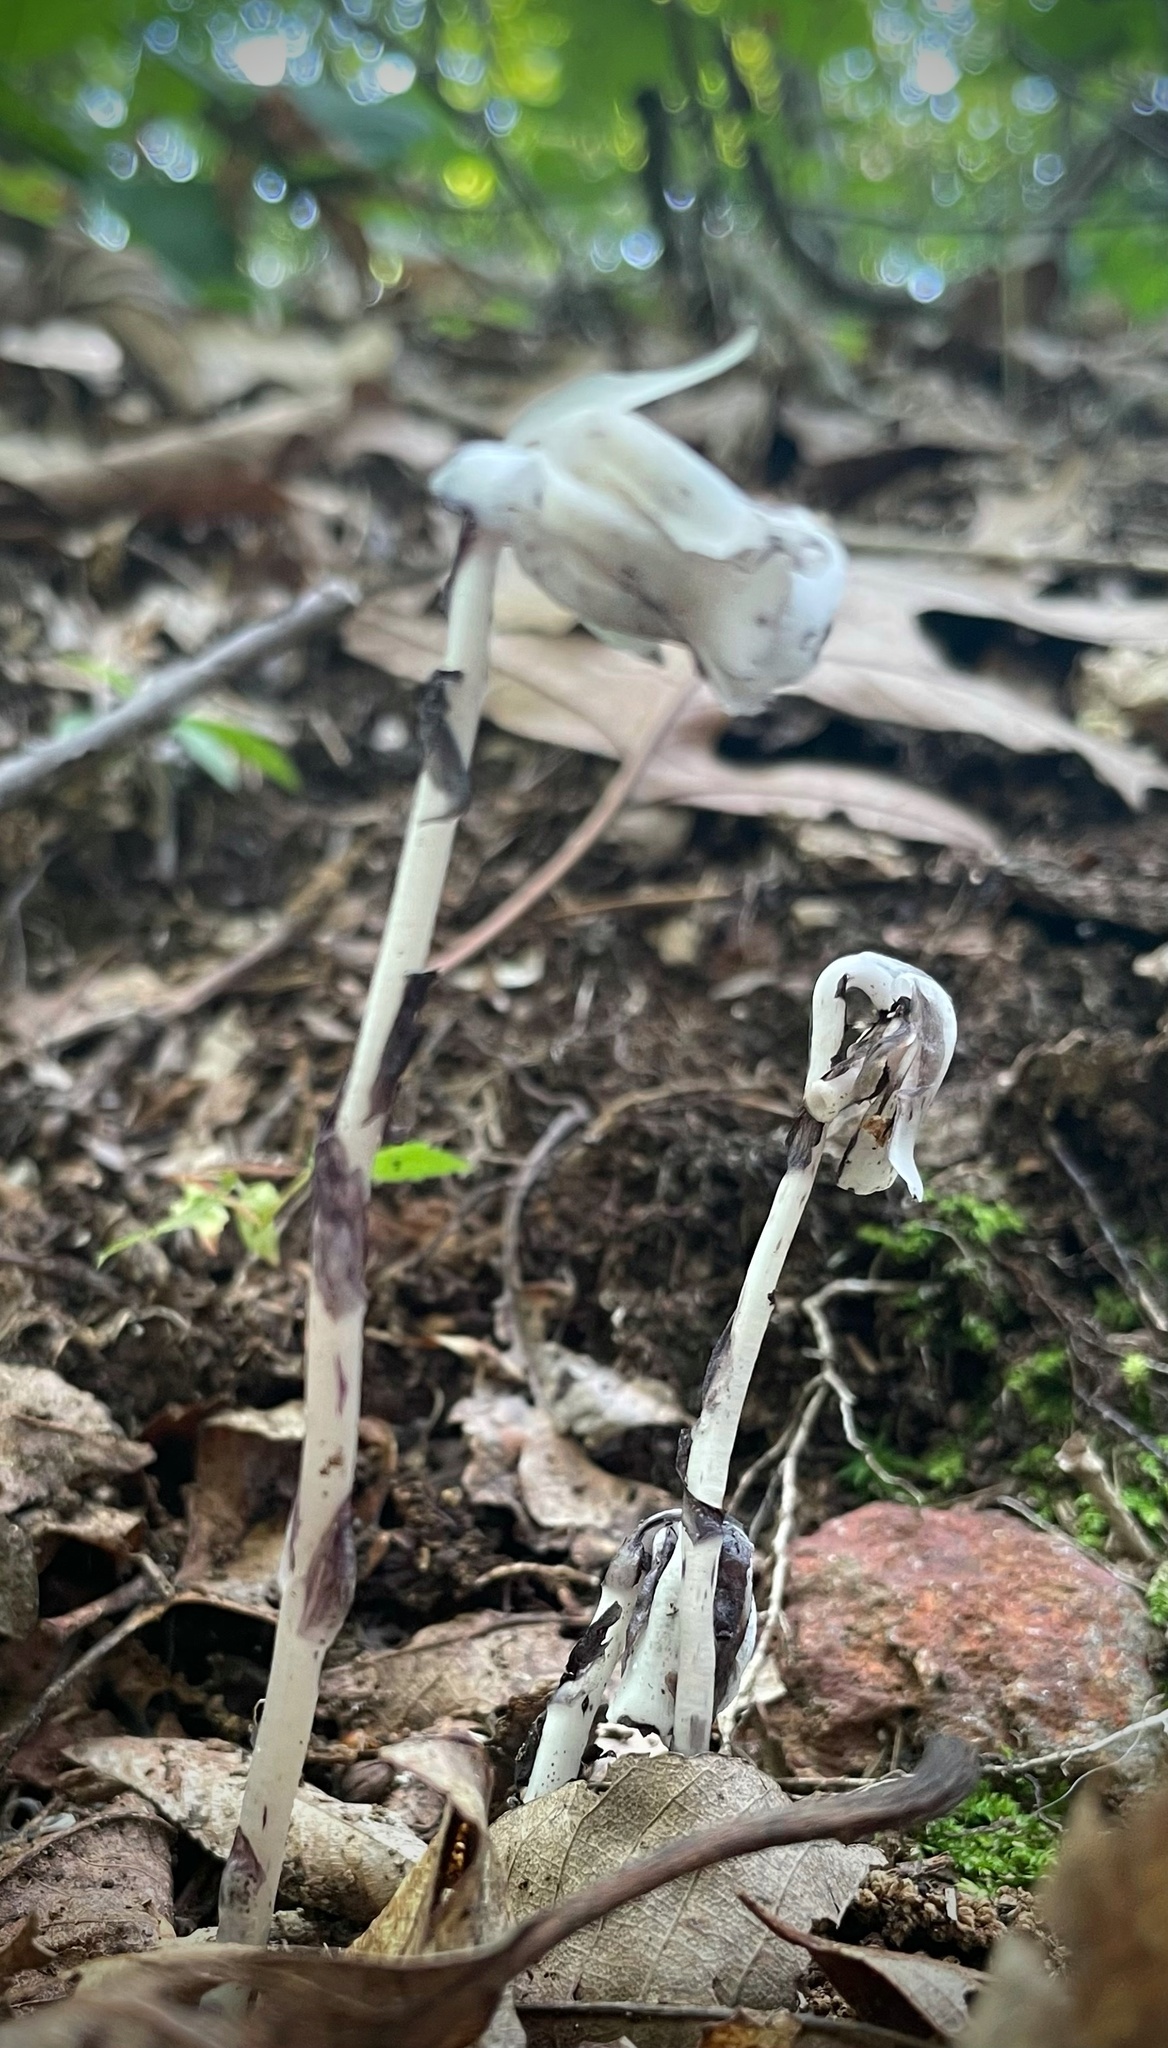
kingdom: Plantae
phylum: Tracheophyta
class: Magnoliopsida
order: Ericales
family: Ericaceae
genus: Monotropa
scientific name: Monotropa uniflora
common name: Convulsion root
